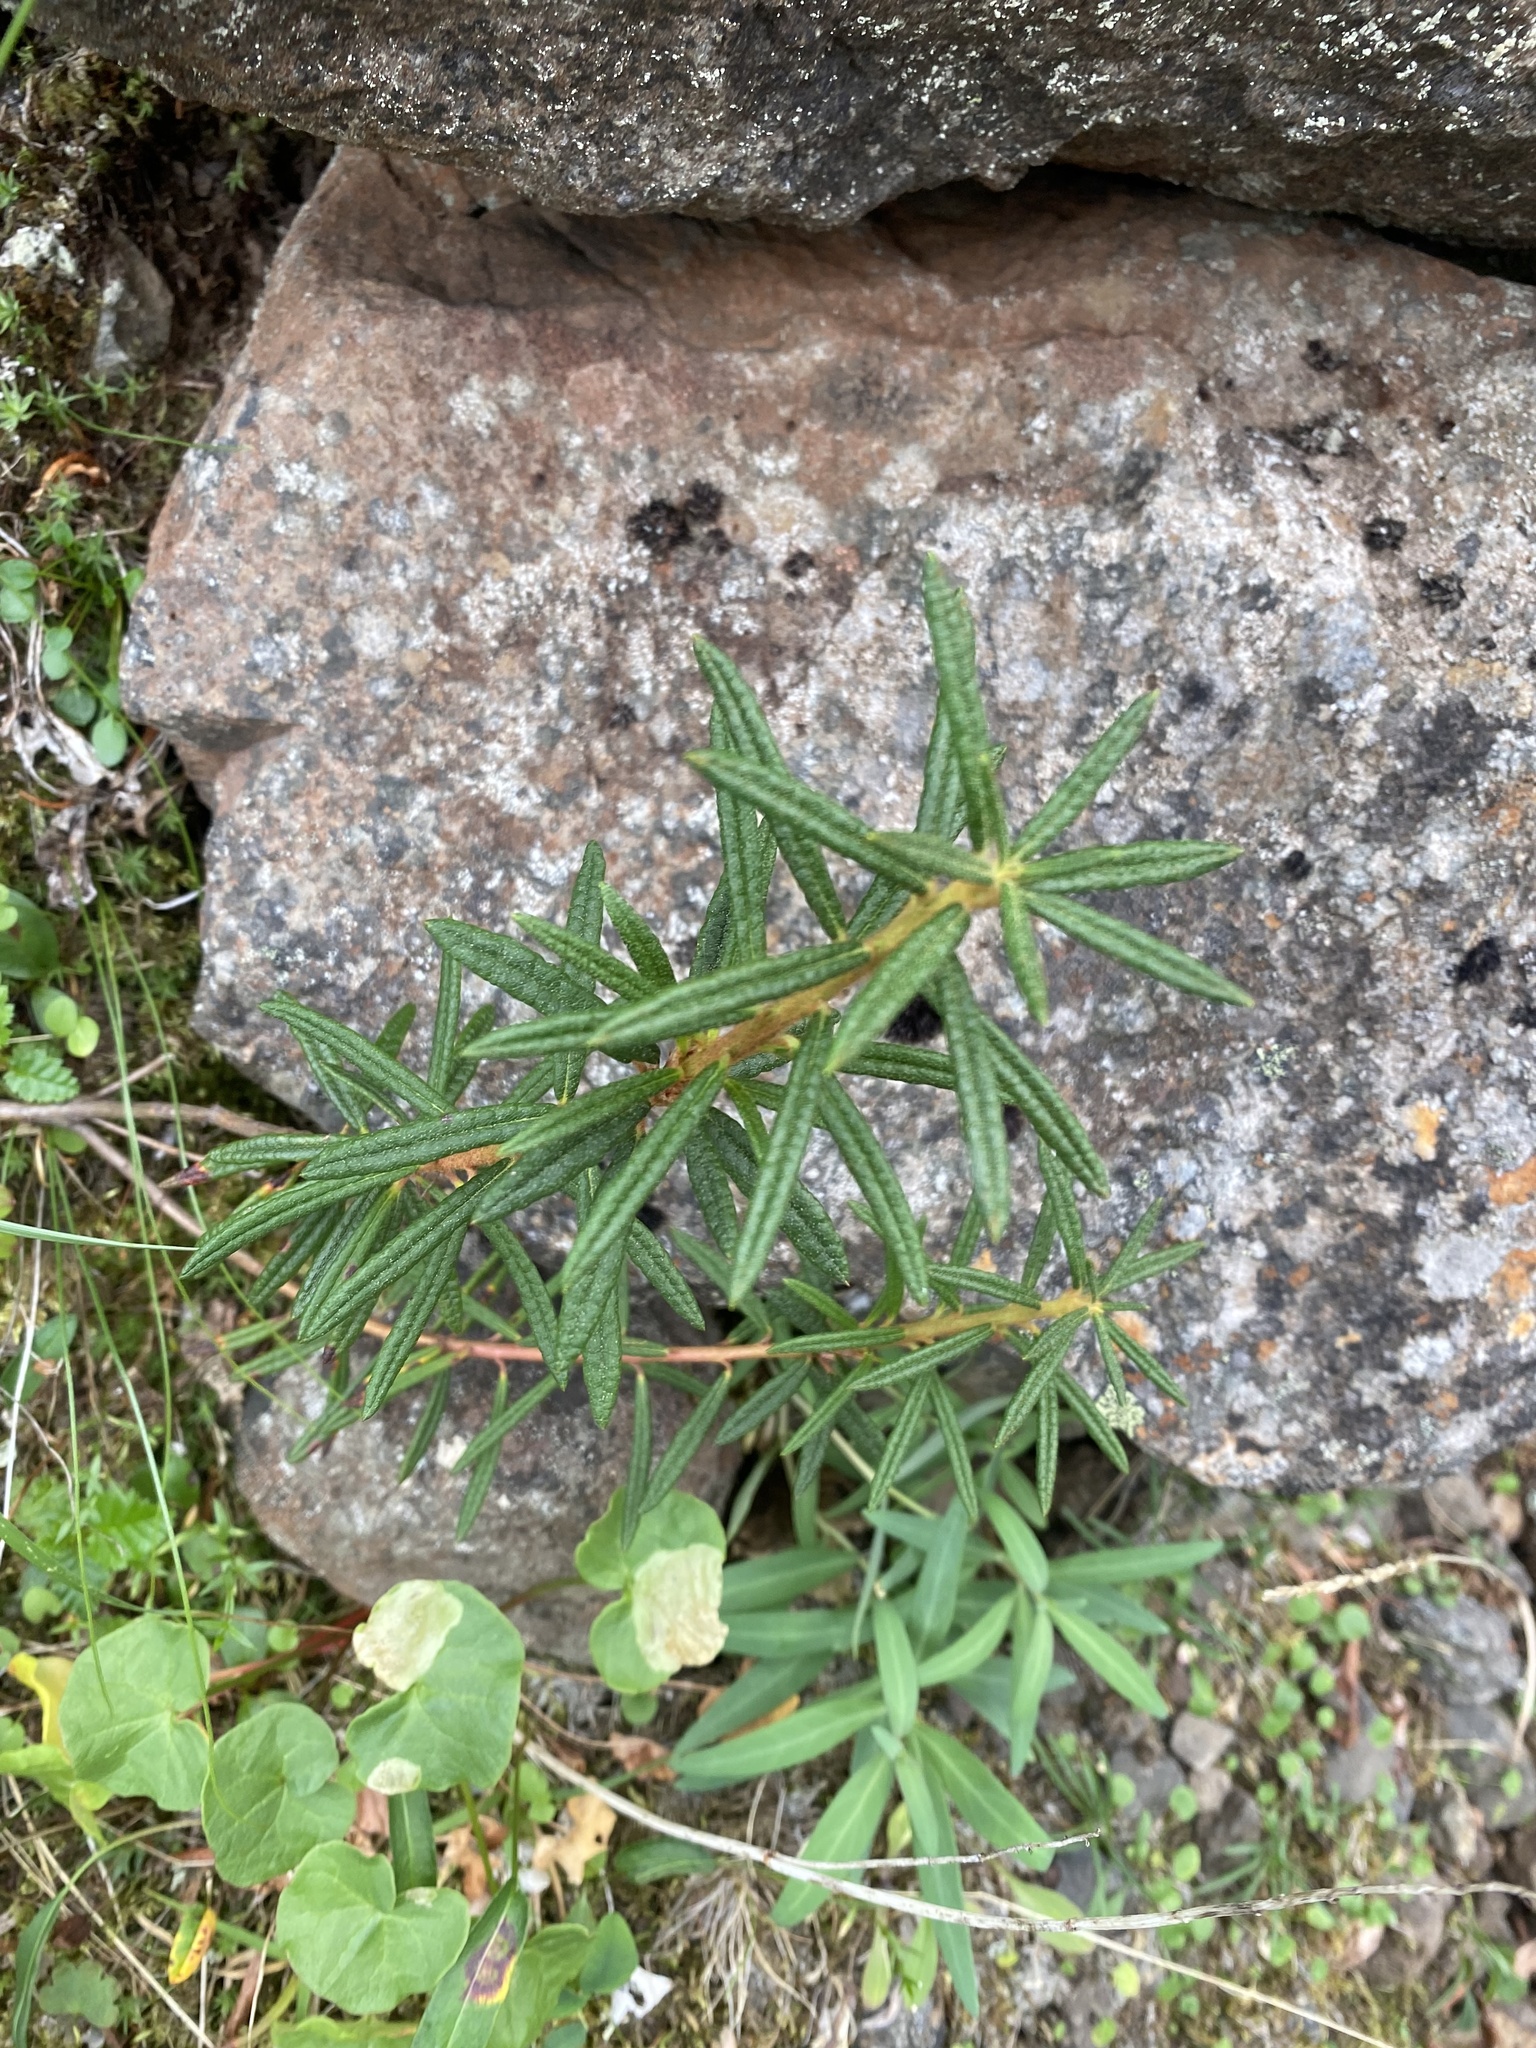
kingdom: Plantae
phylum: Tracheophyta
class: Magnoliopsida
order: Ericales
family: Ericaceae
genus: Rhododendron
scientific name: Rhododendron tomentosum
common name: Marsh labrador tea
